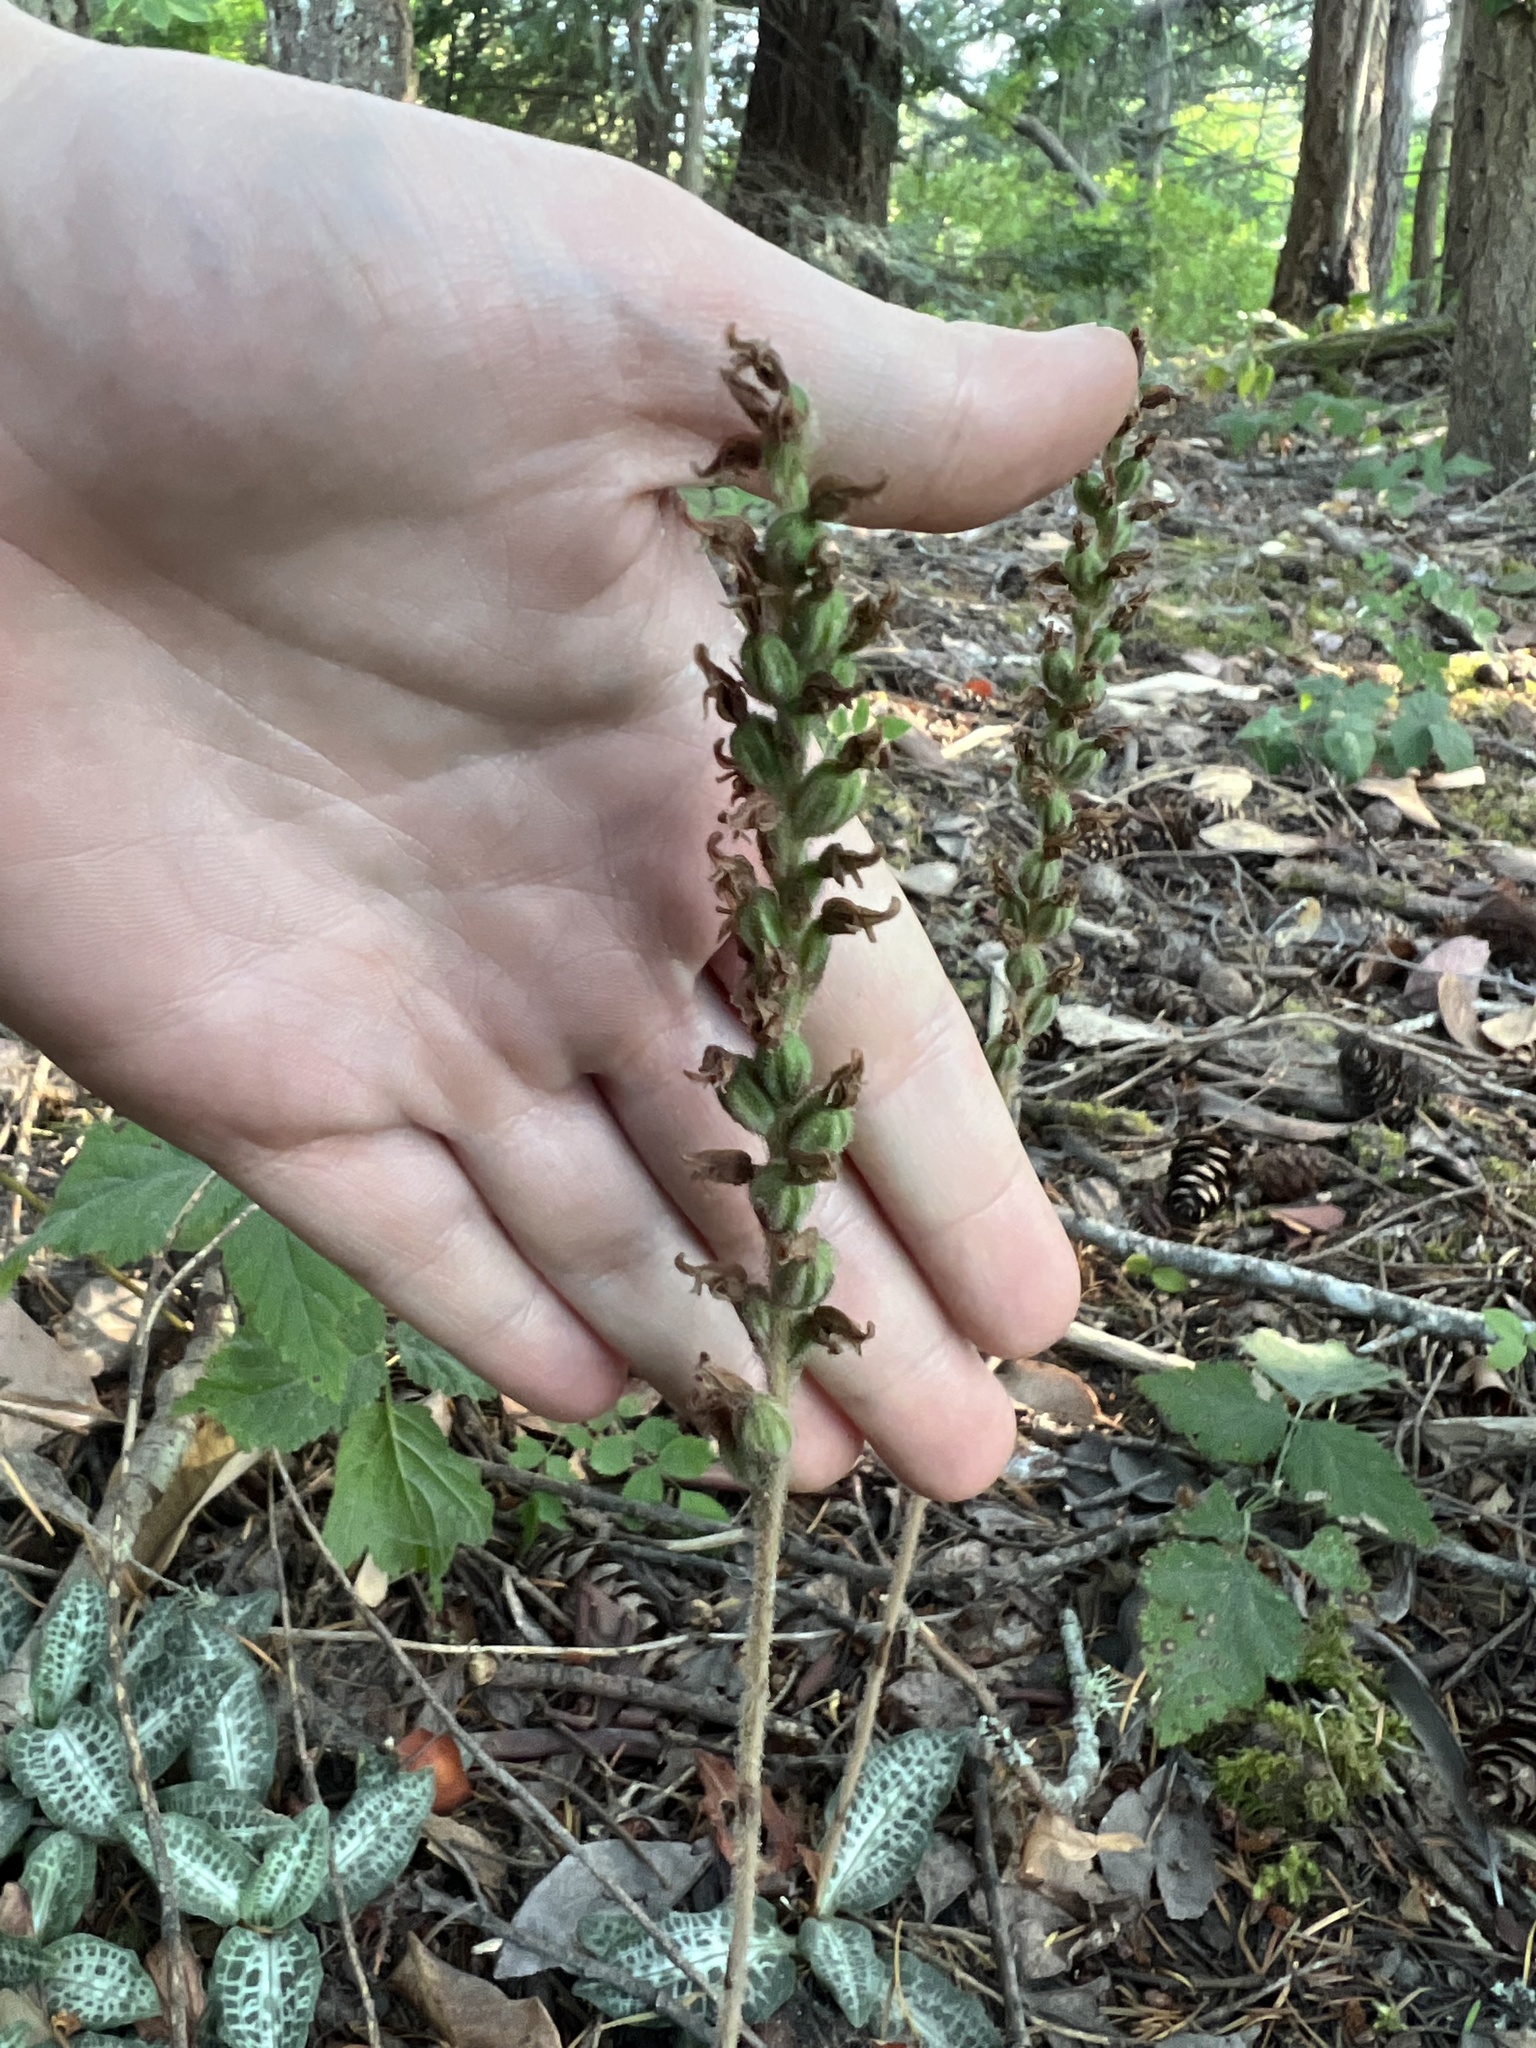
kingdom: Plantae
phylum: Tracheophyta
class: Liliopsida
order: Asparagales
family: Orchidaceae
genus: Goodyera
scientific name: Goodyera oblongifolia
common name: Giant rattlesnake-plantain
